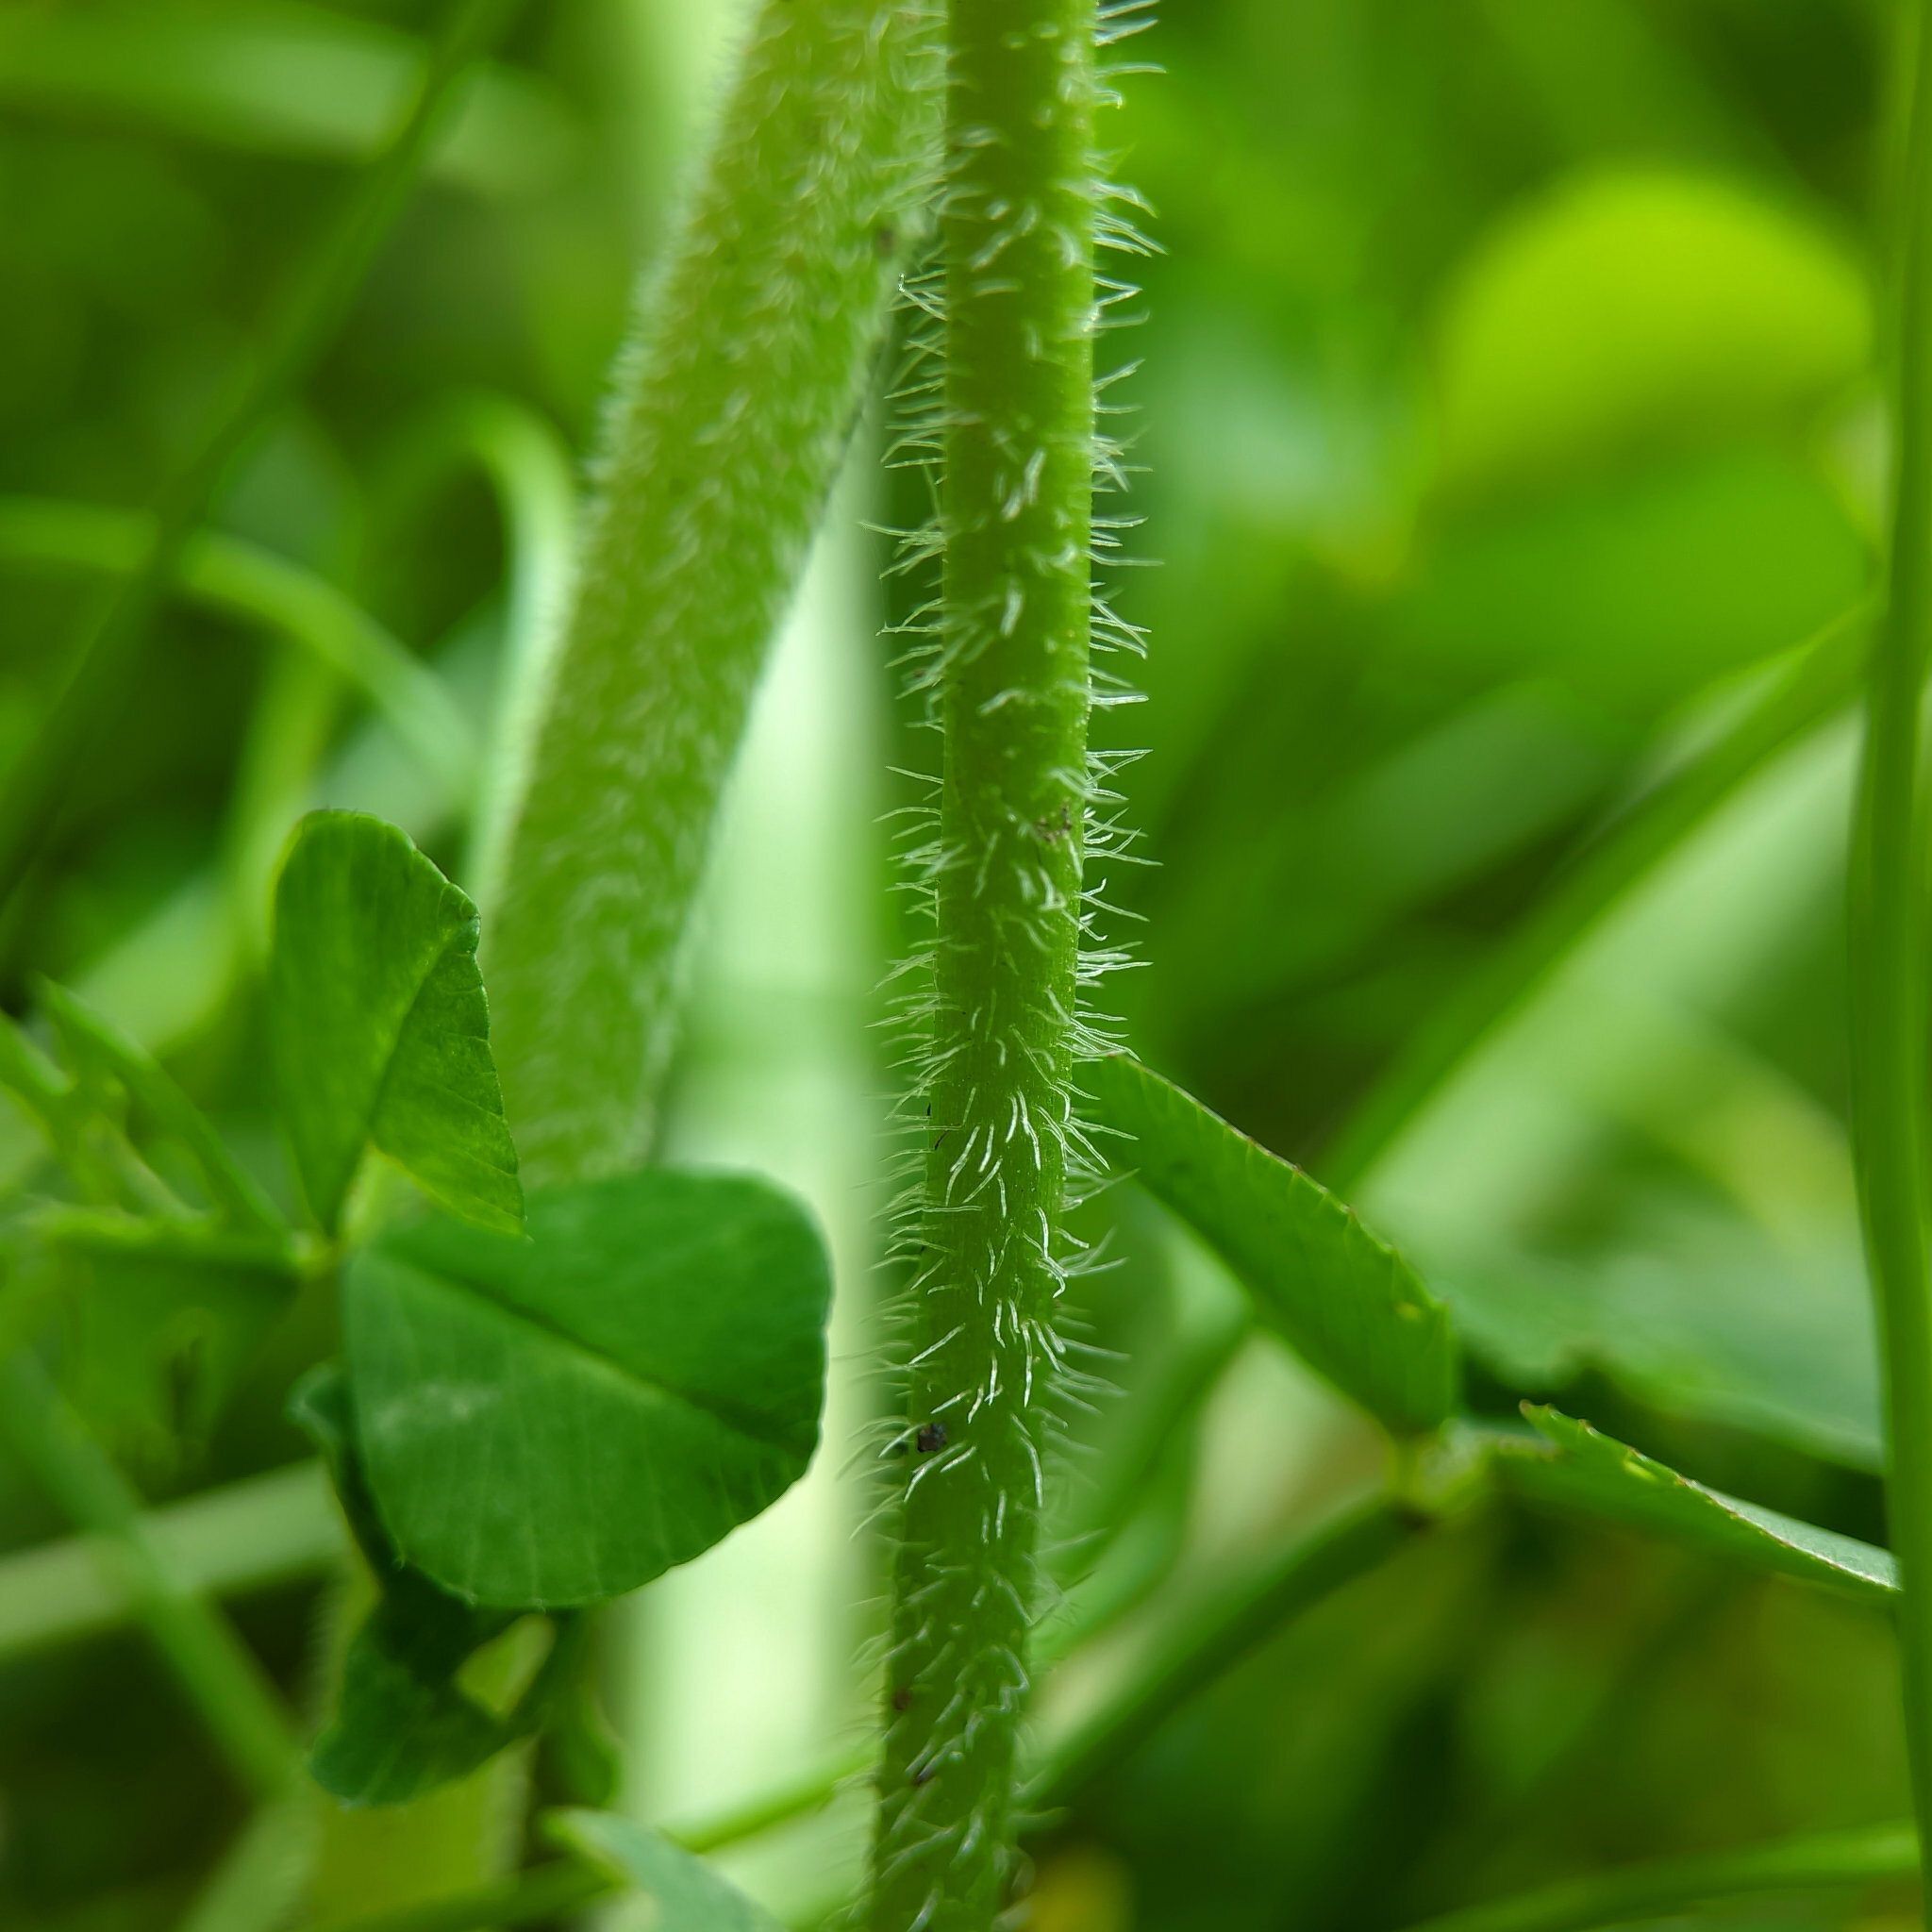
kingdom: Plantae
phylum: Tracheophyta
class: Magnoliopsida
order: Lamiales
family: Plantaginaceae
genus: Plantago
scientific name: Plantago media
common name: Hoary plantain
